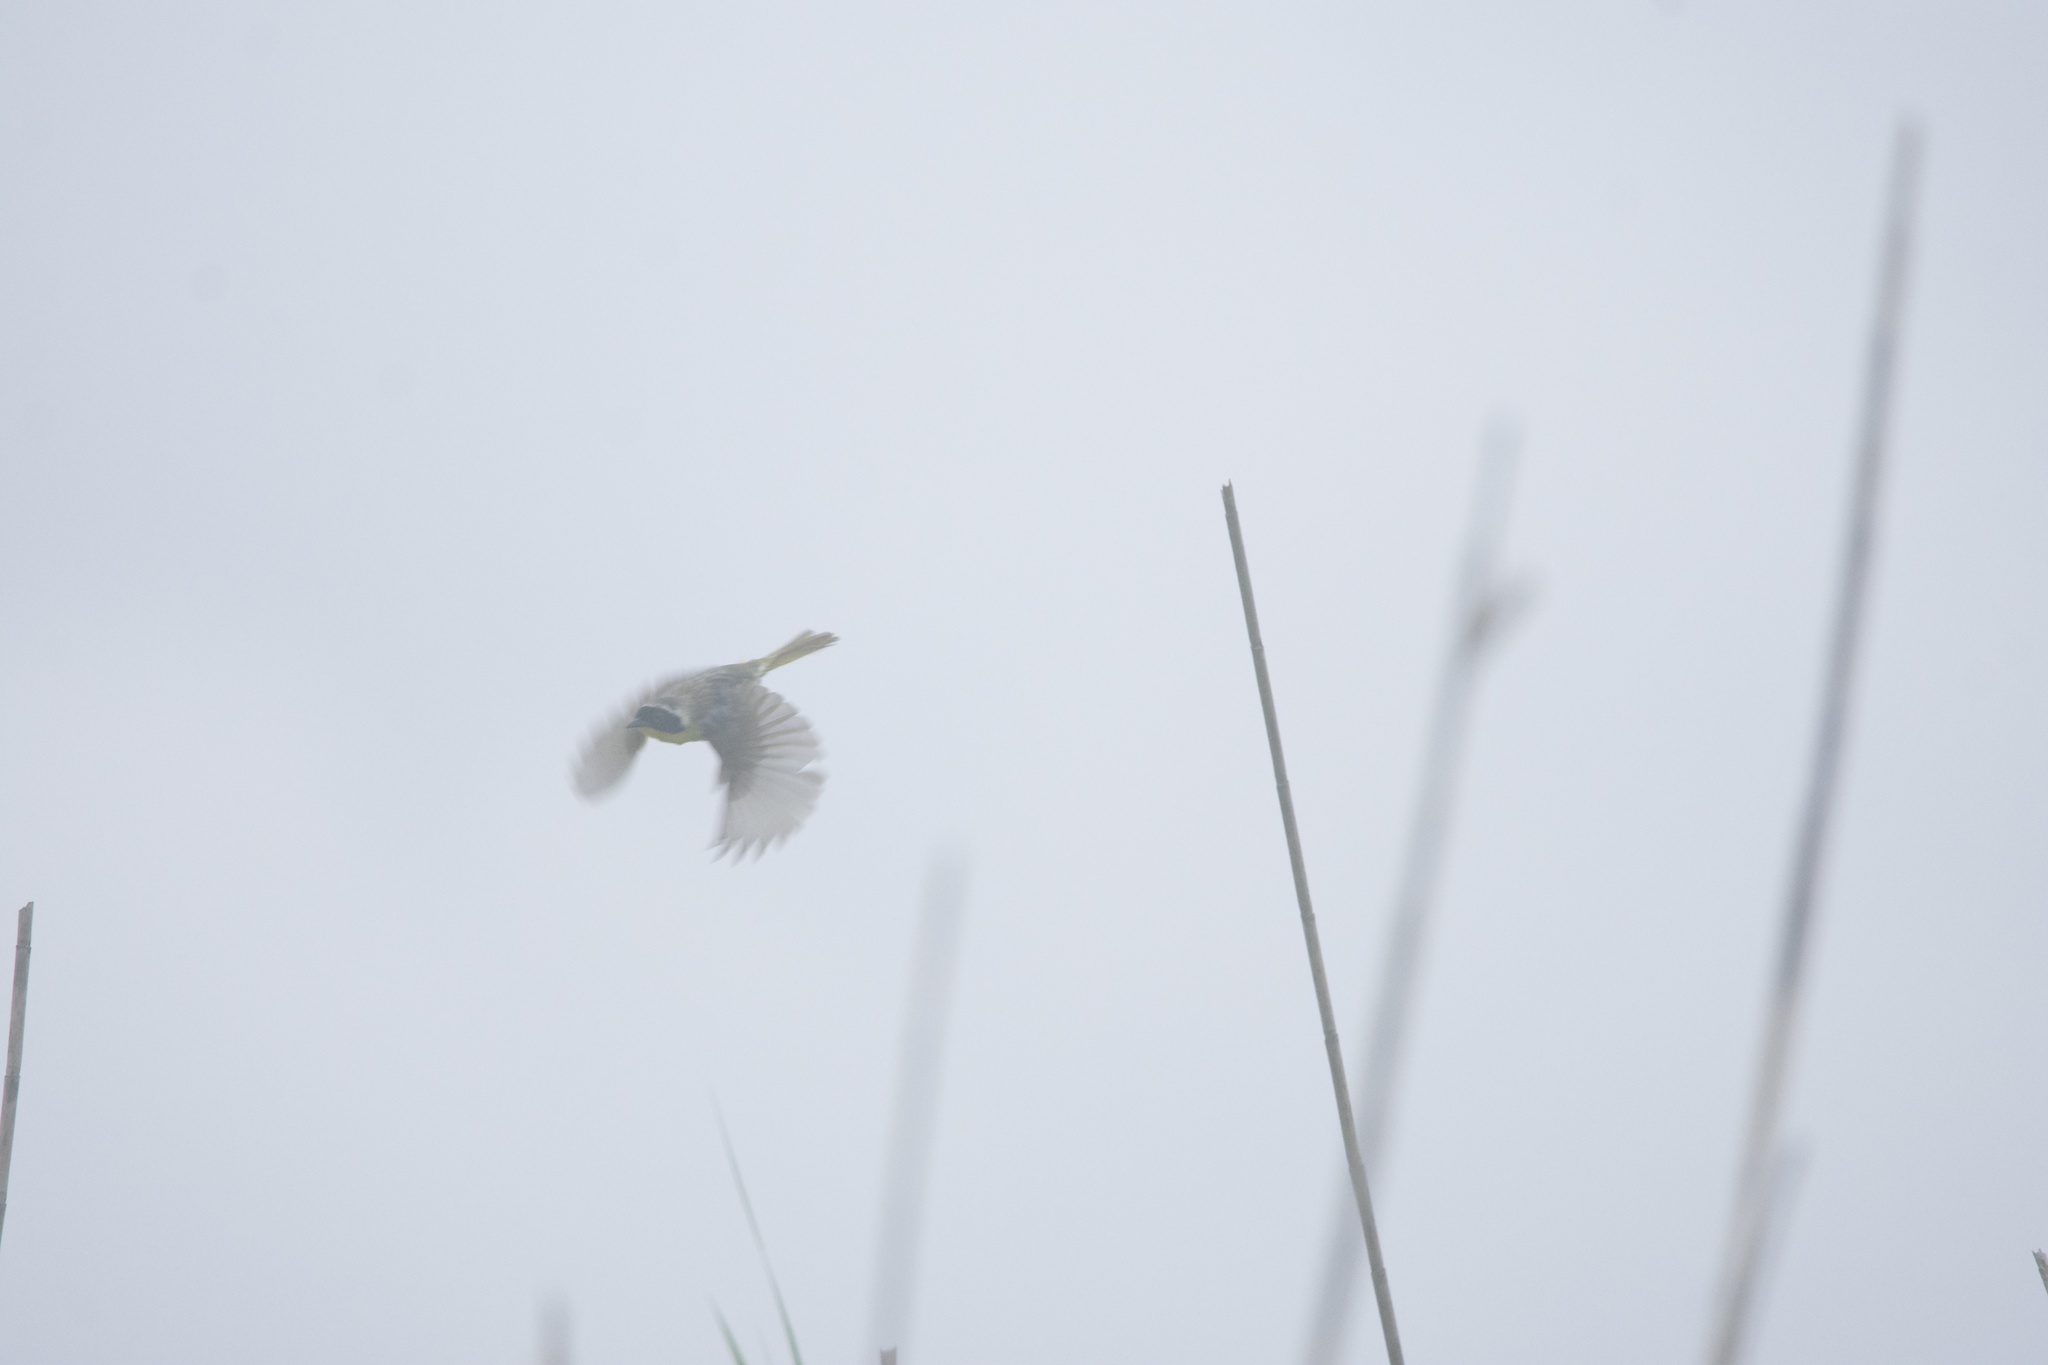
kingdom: Animalia
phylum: Chordata
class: Aves
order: Passeriformes
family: Parulidae
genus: Geothlypis
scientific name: Geothlypis trichas
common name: Common yellowthroat
